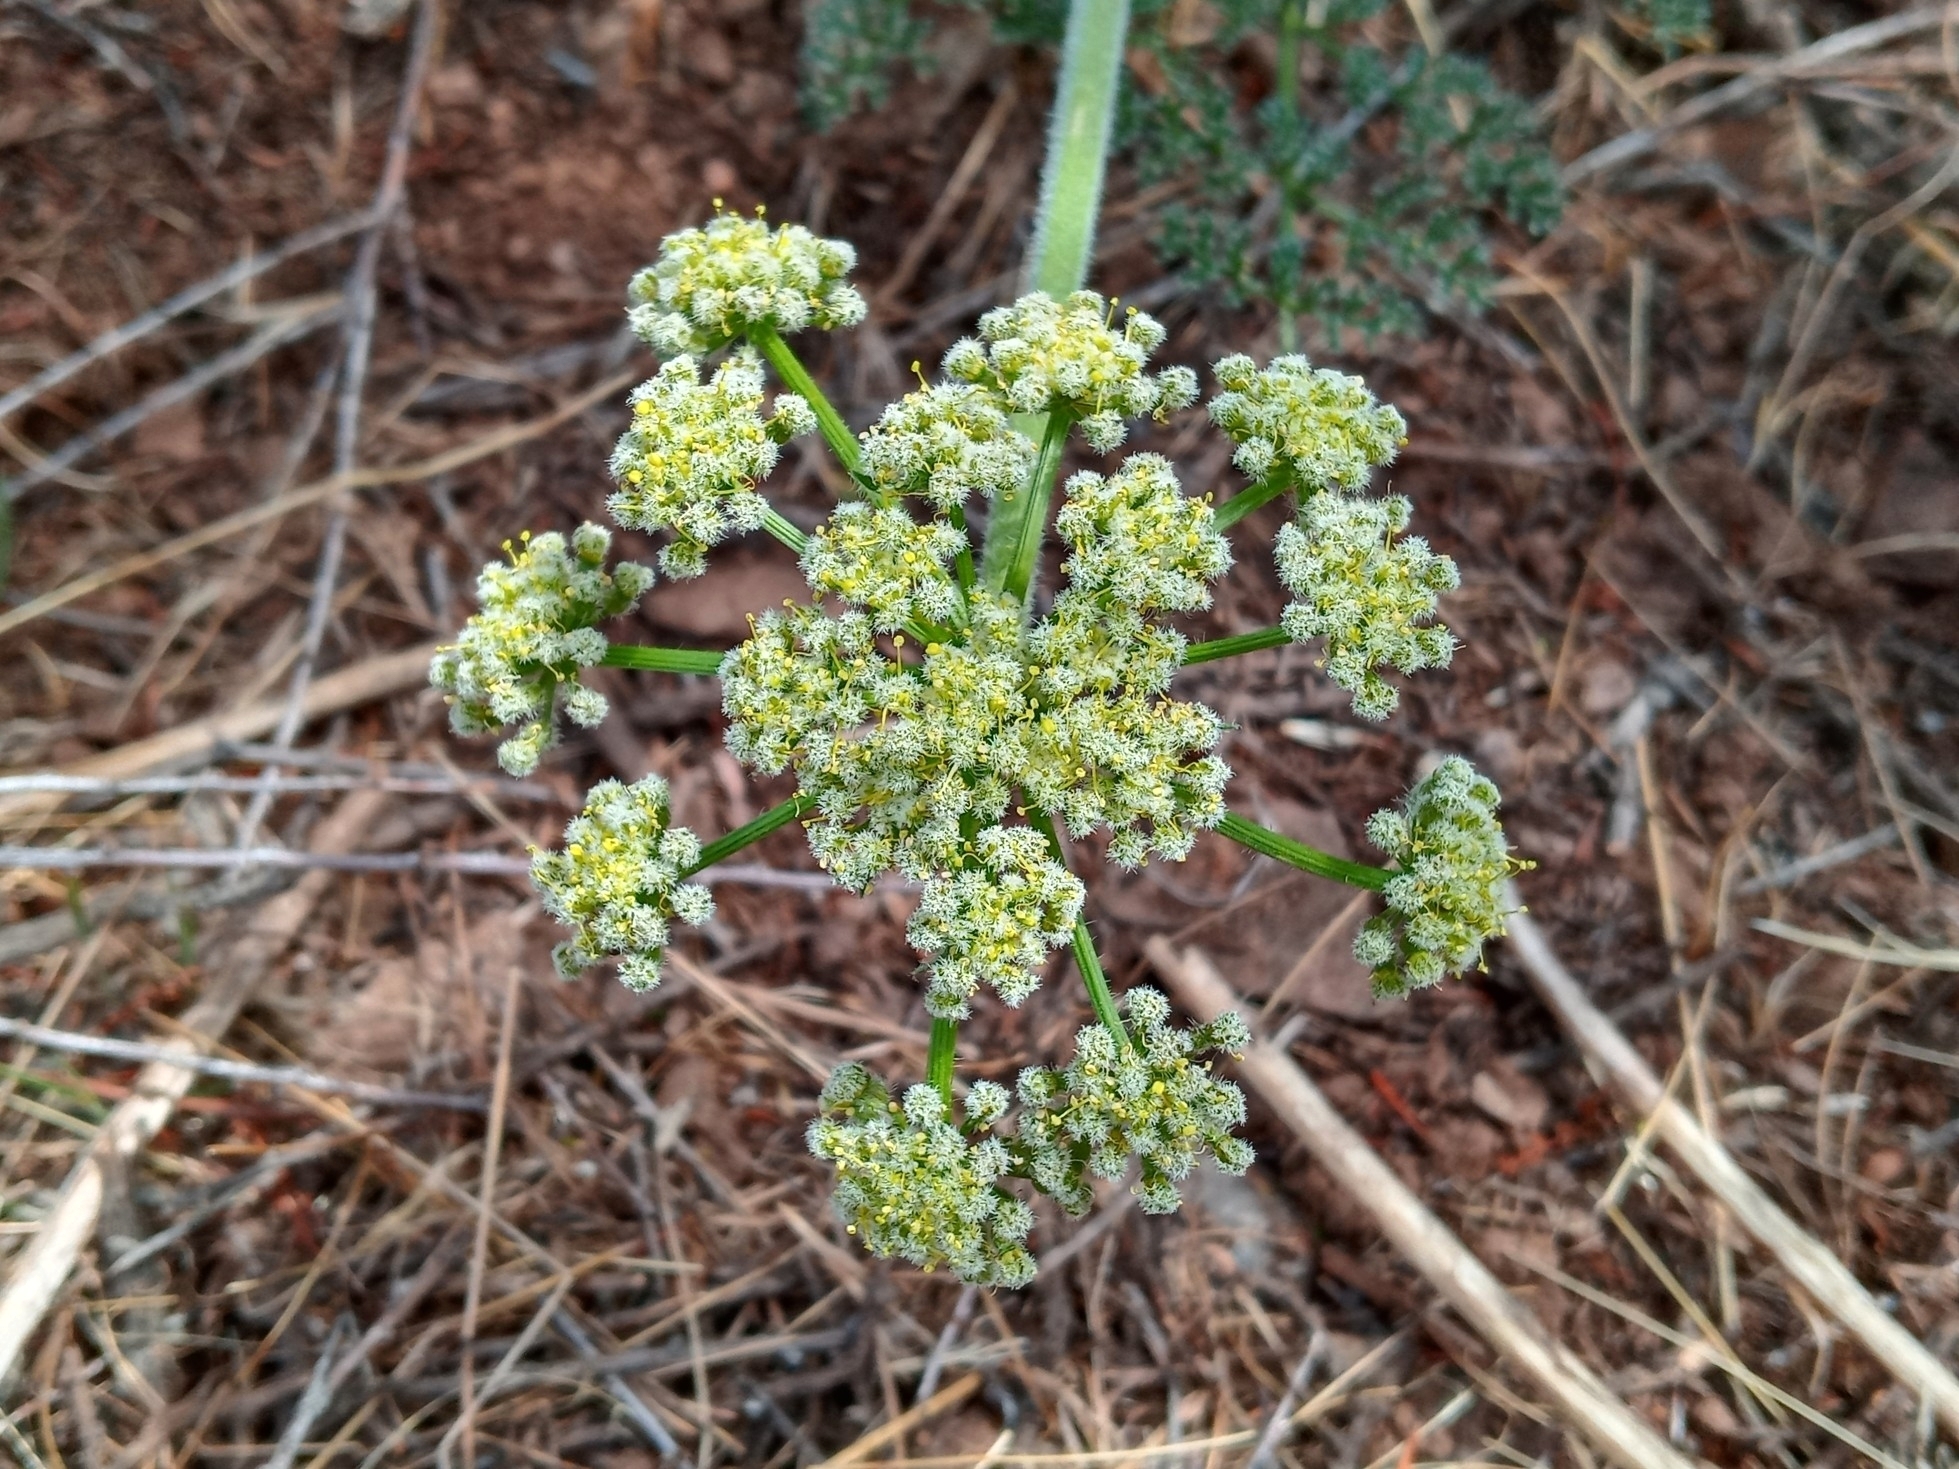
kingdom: Plantae
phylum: Tracheophyta
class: Magnoliopsida
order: Apiales
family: Apiaceae
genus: Lomatium
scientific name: Lomatium dasycarpum
